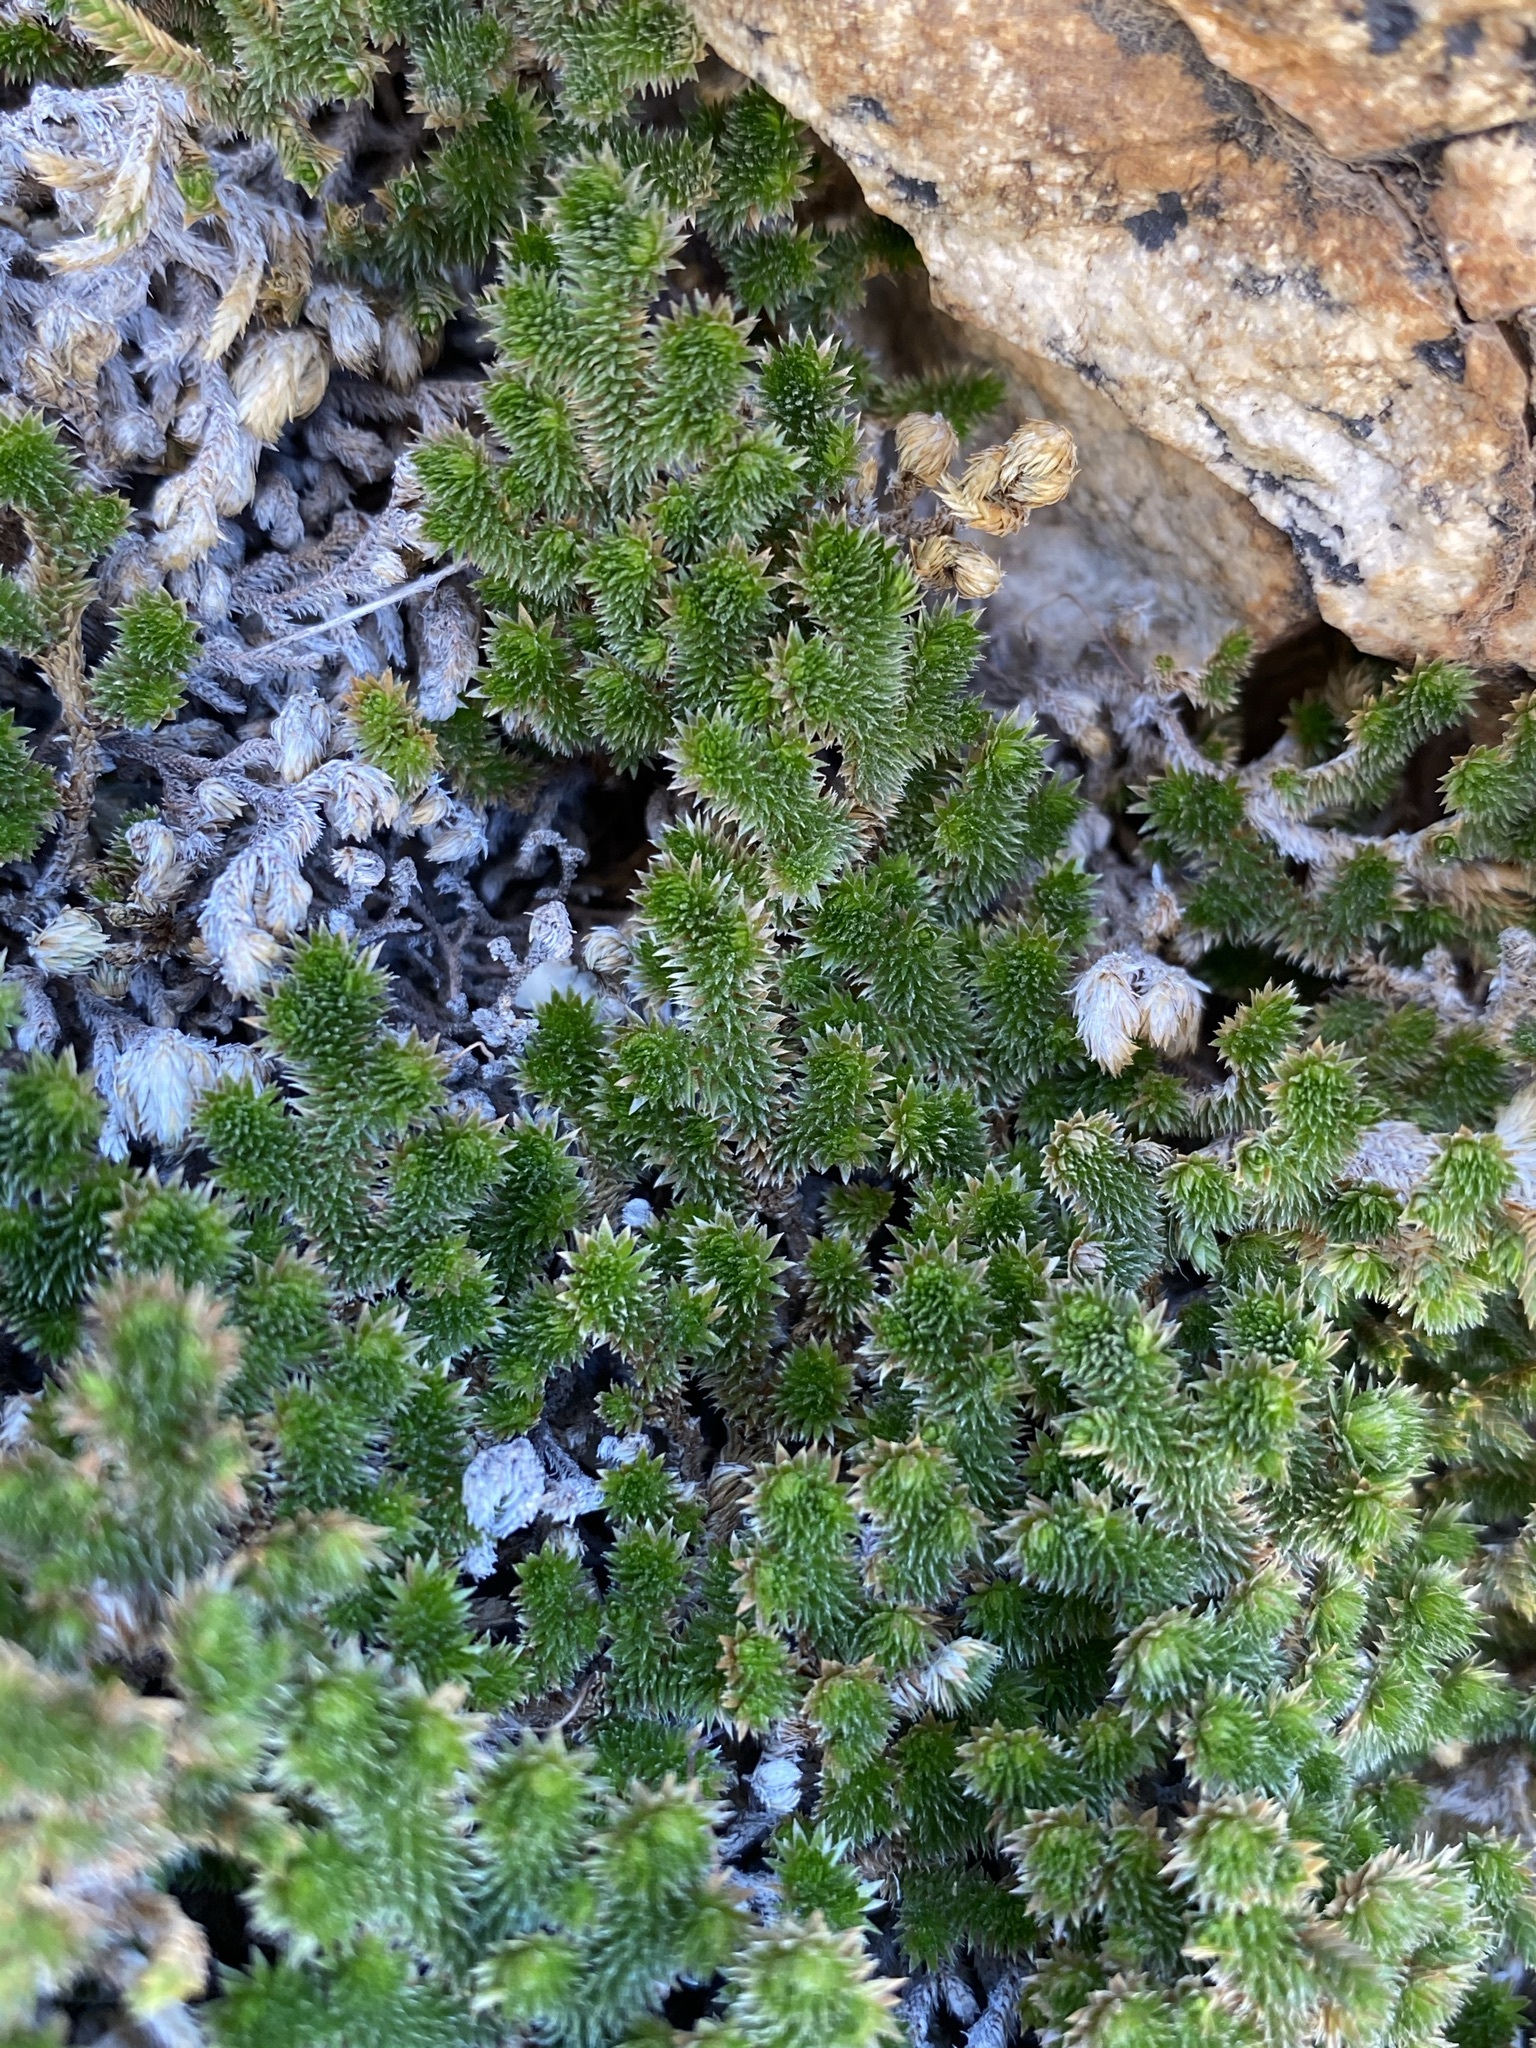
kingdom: Plantae
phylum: Tracheophyta
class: Lycopodiopsida
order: Selaginellales
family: Selaginellaceae
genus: Selaginella
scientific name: Selaginella arizonica
